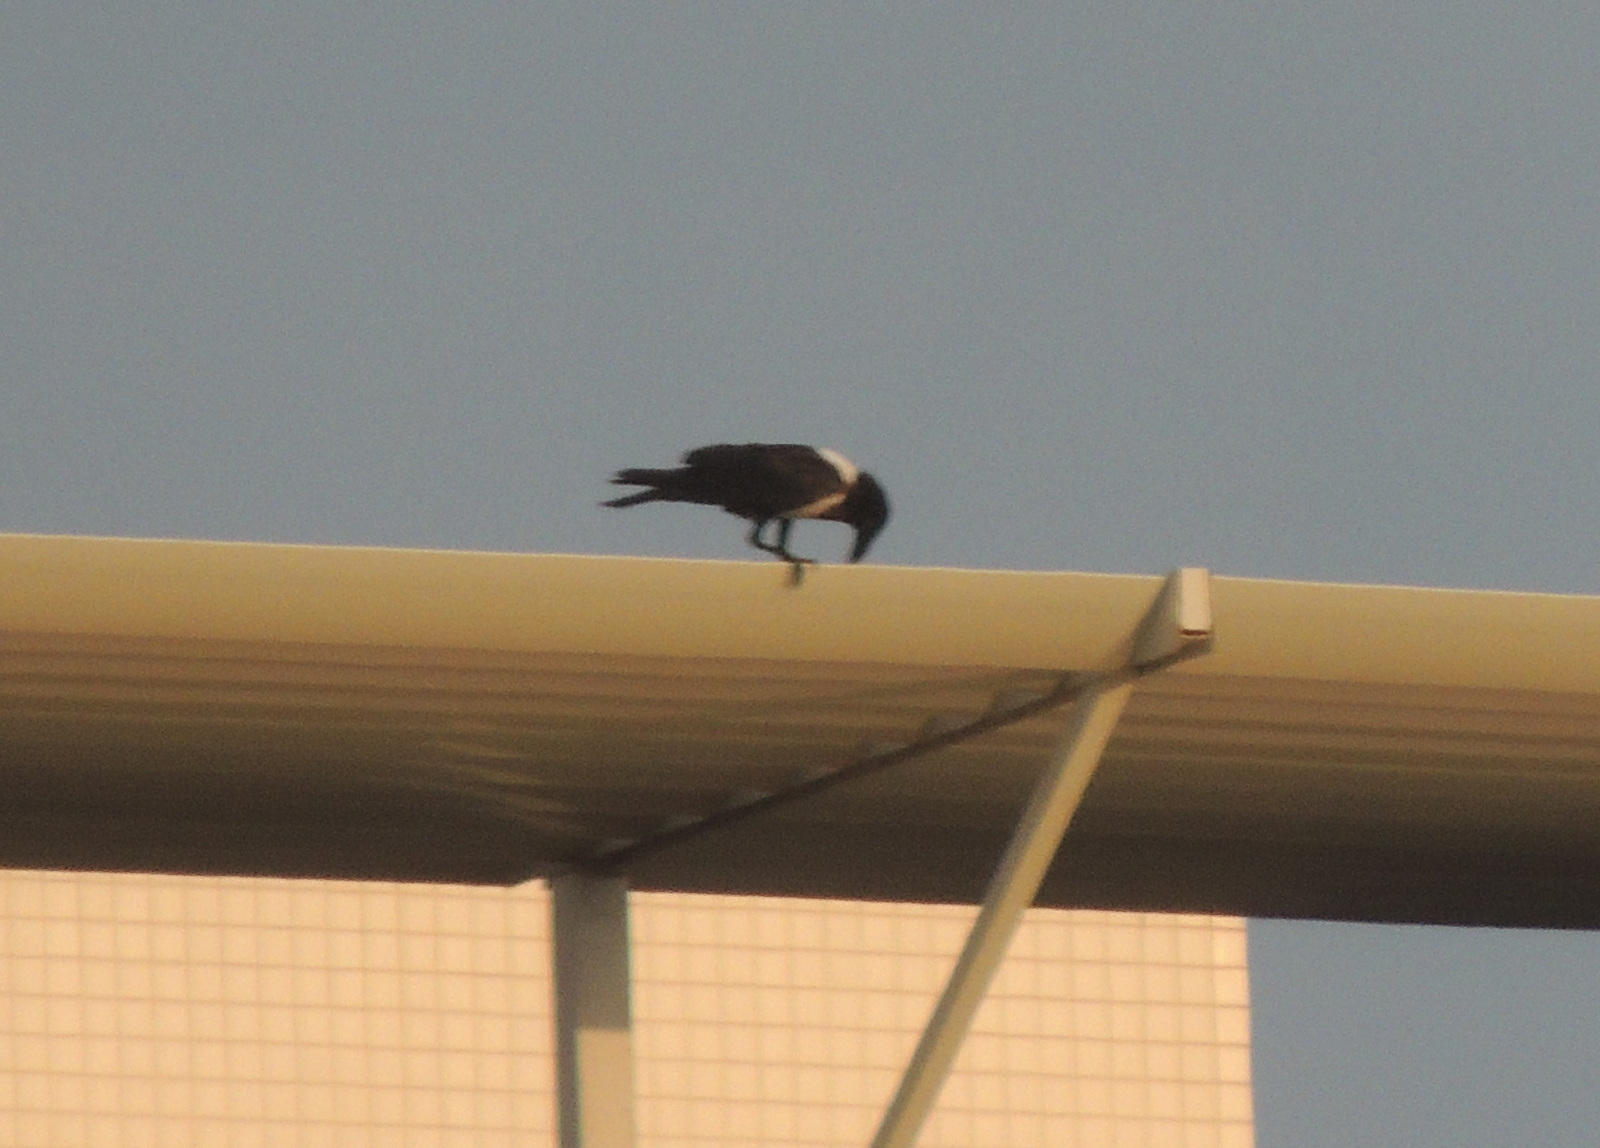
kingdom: Animalia
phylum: Chordata
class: Aves
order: Passeriformes
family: Corvidae
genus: Corvus
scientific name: Corvus albus
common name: Pied crow
